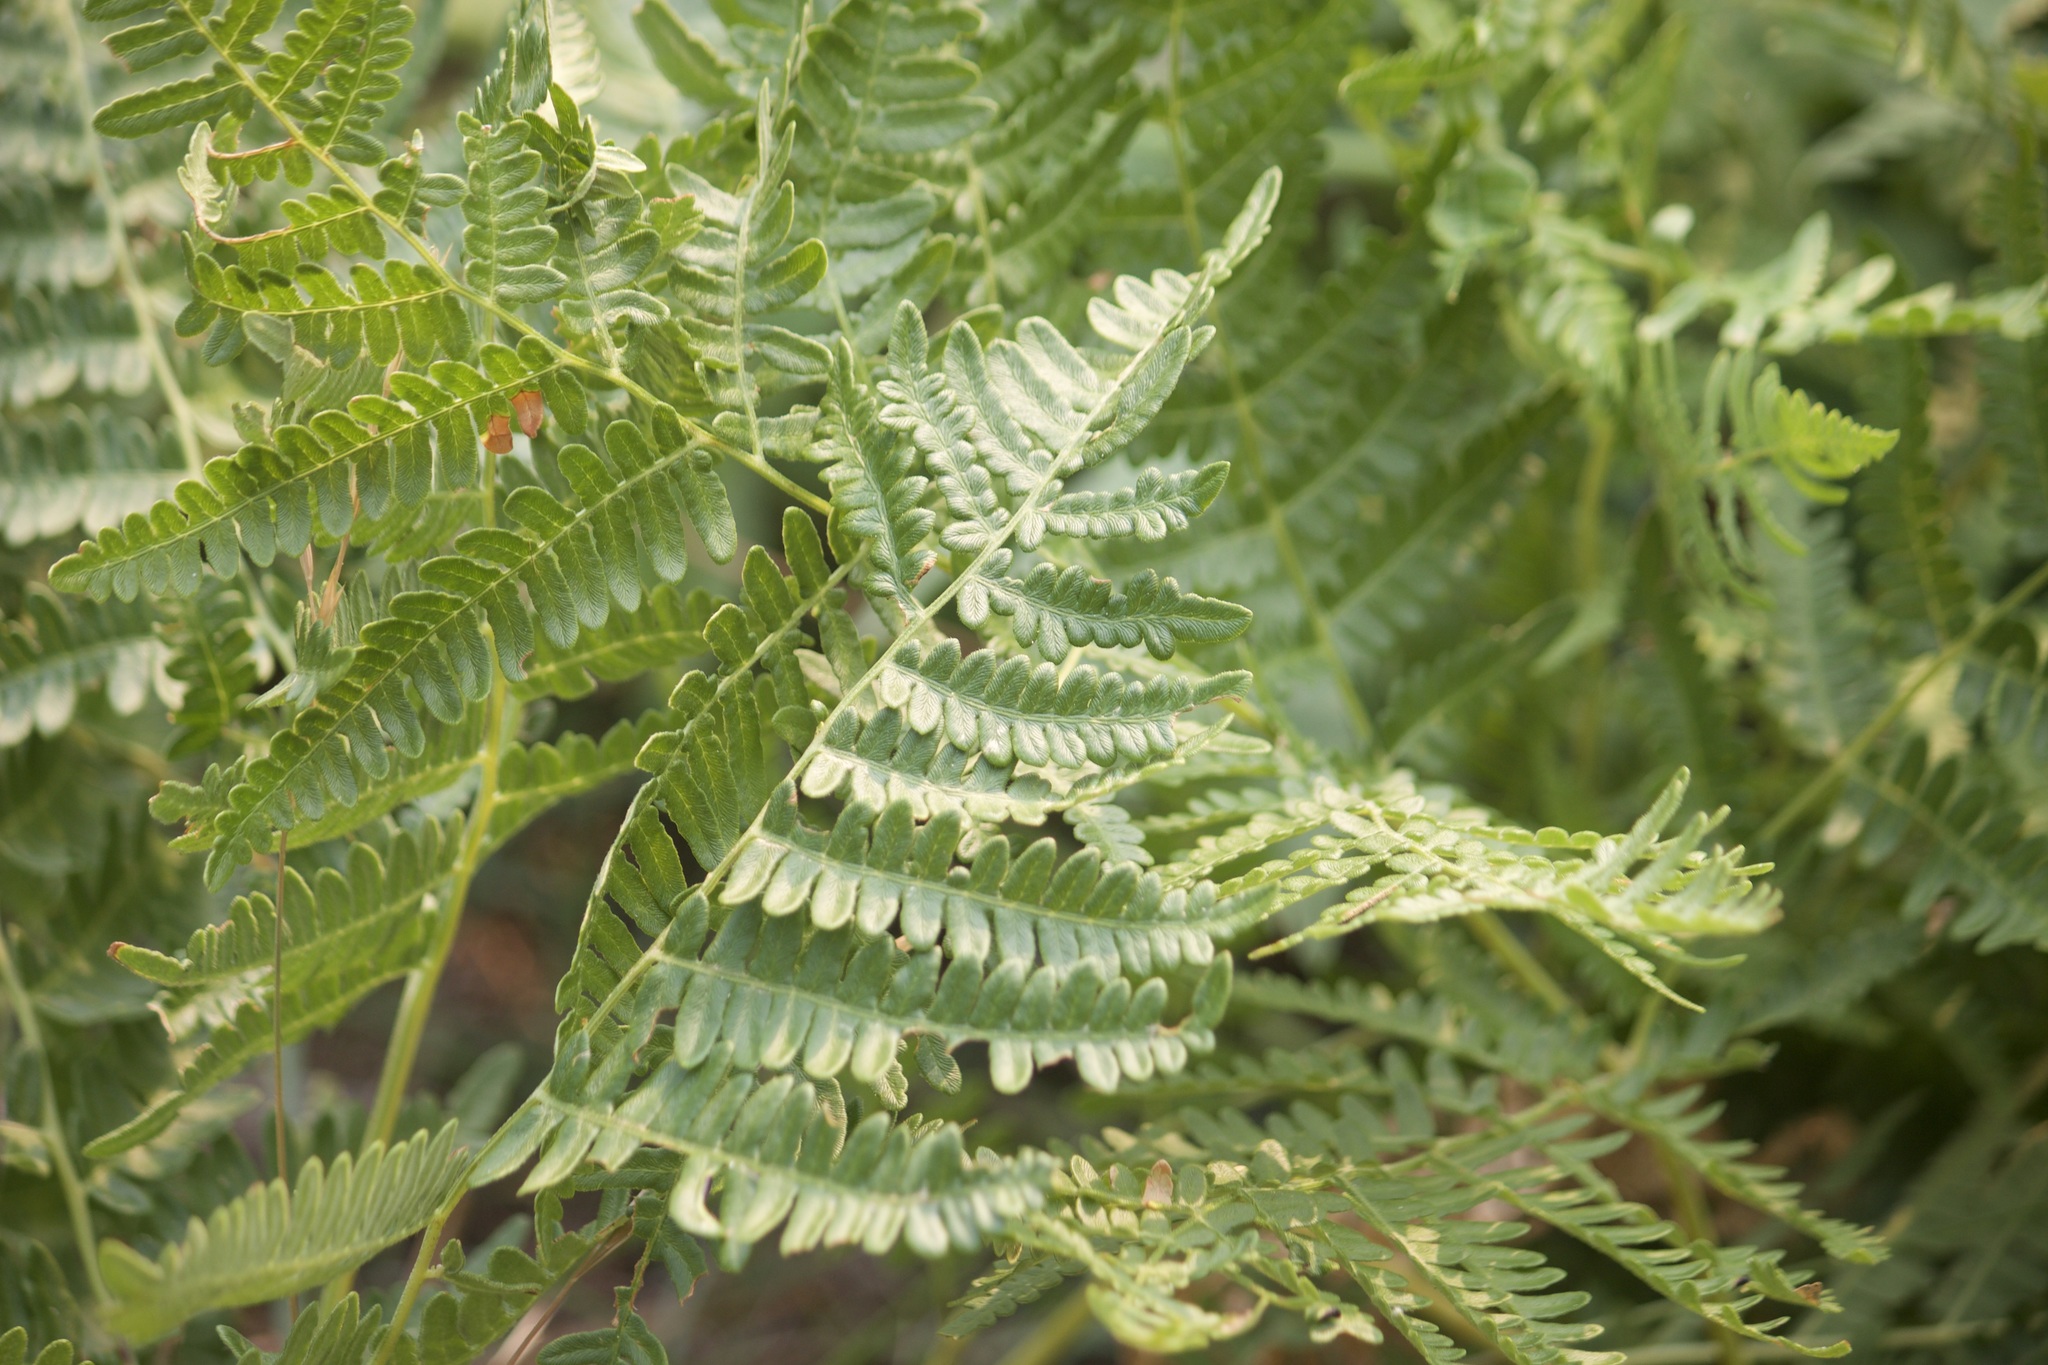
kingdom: Plantae
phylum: Tracheophyta
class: Polypodiopsida
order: Polypodiales
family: Dennstaedtiaceae
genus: Pteridium
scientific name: Pteridium aquilinum
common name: Bracken
